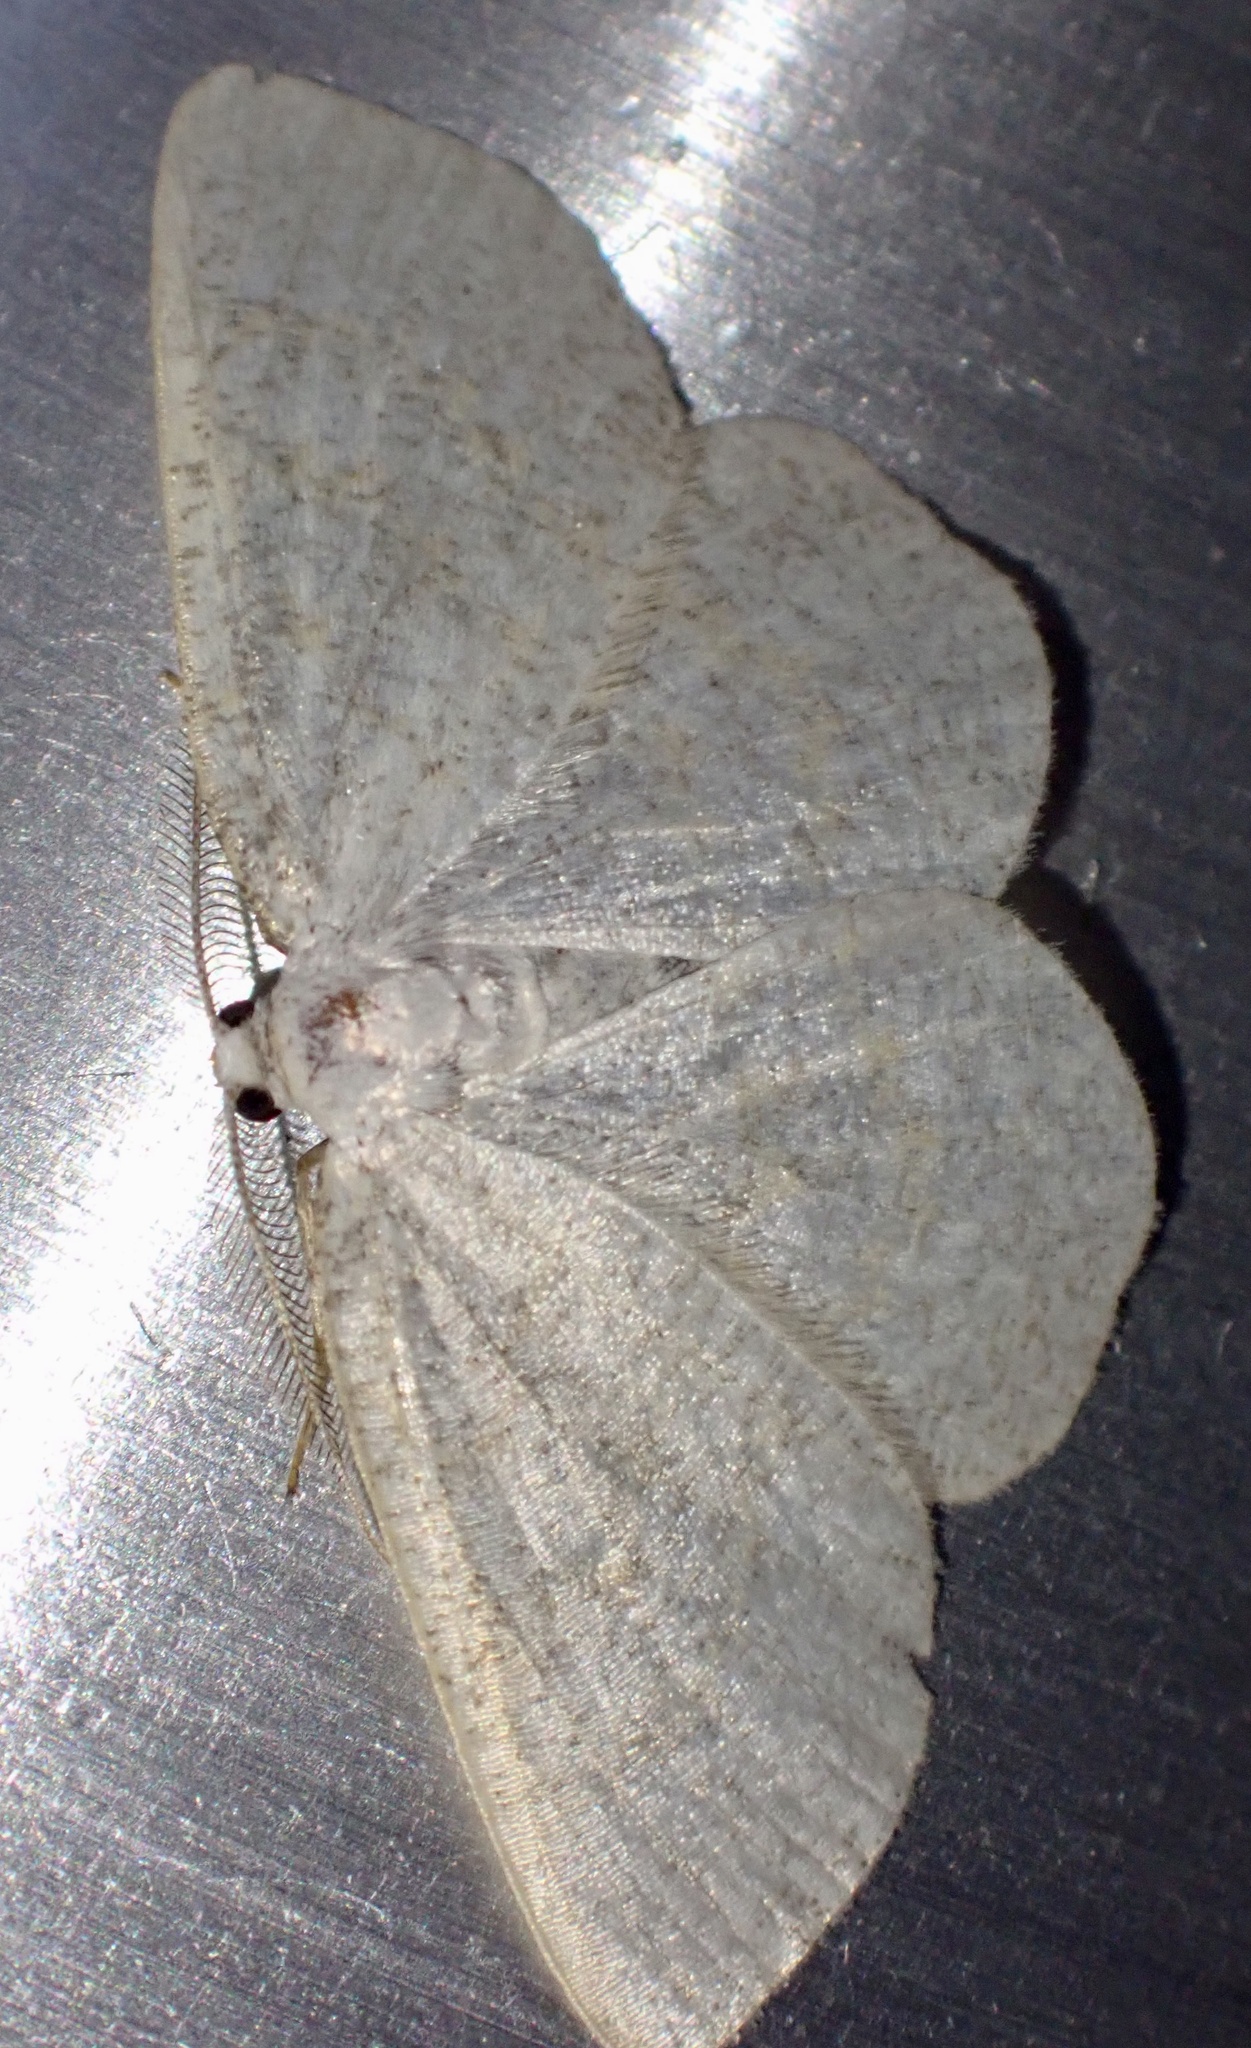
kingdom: Animalia
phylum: Arthropoda
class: Insecta
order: Lepidoptera
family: Geometridae
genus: Cabera
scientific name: Cabera exanthemata
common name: Common wave
